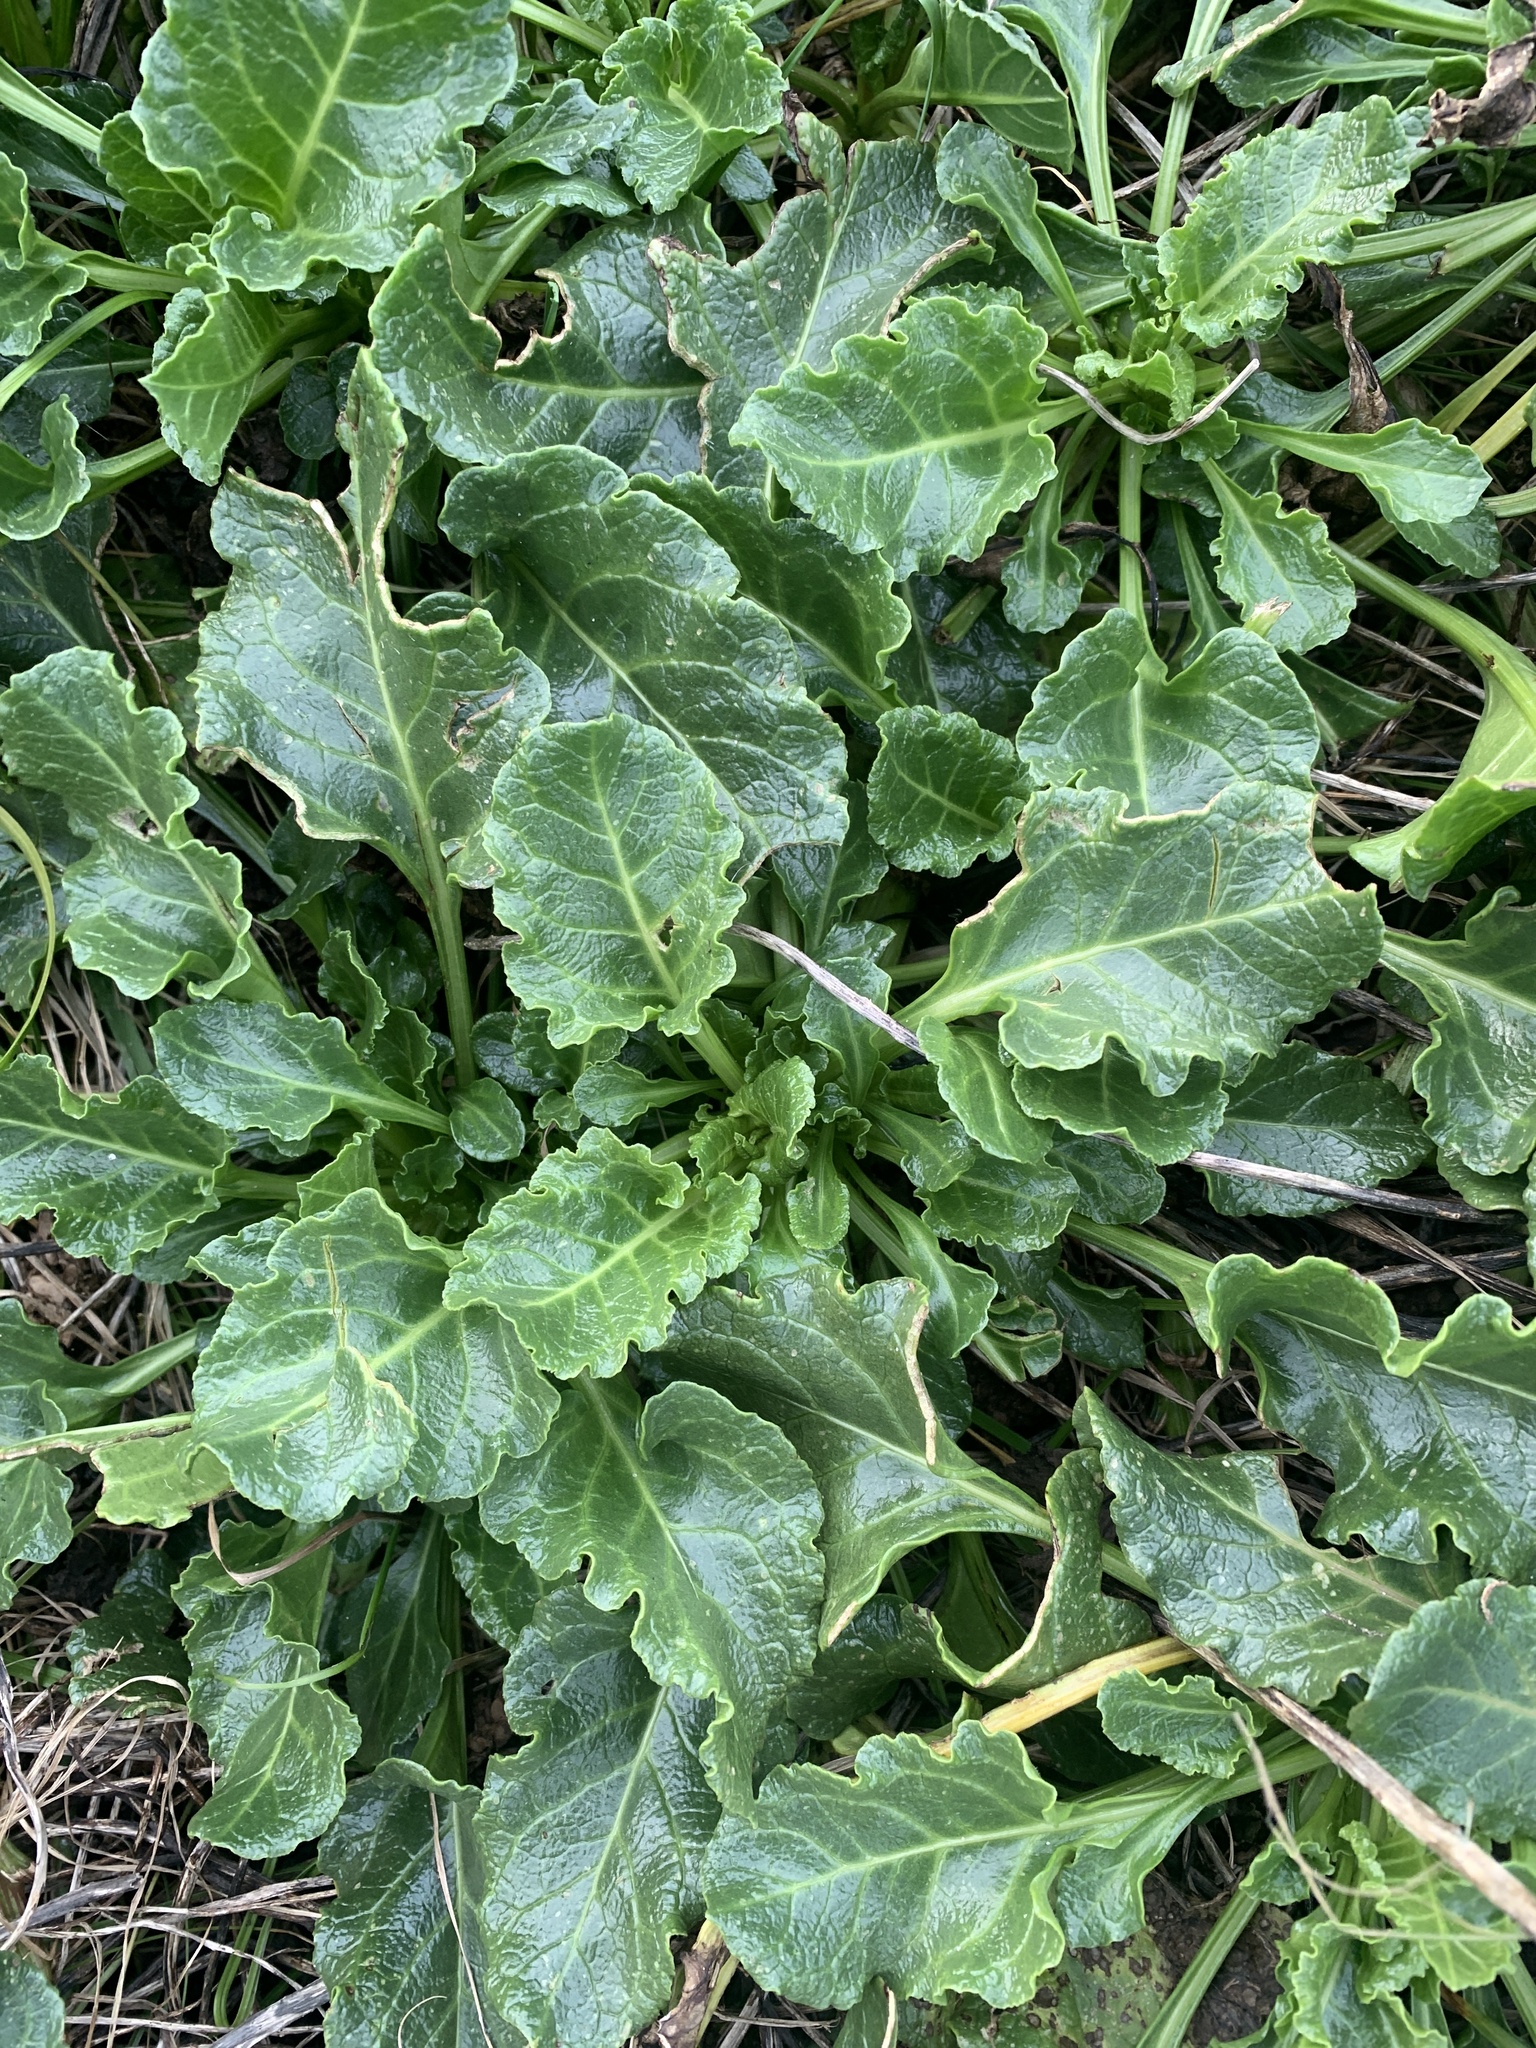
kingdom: Plantae
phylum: Tracheophyta
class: Magnoliopsida
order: Caryophyllales
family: Amaranthaceae
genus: Beta
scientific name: Beta vulgaris
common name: Beet
